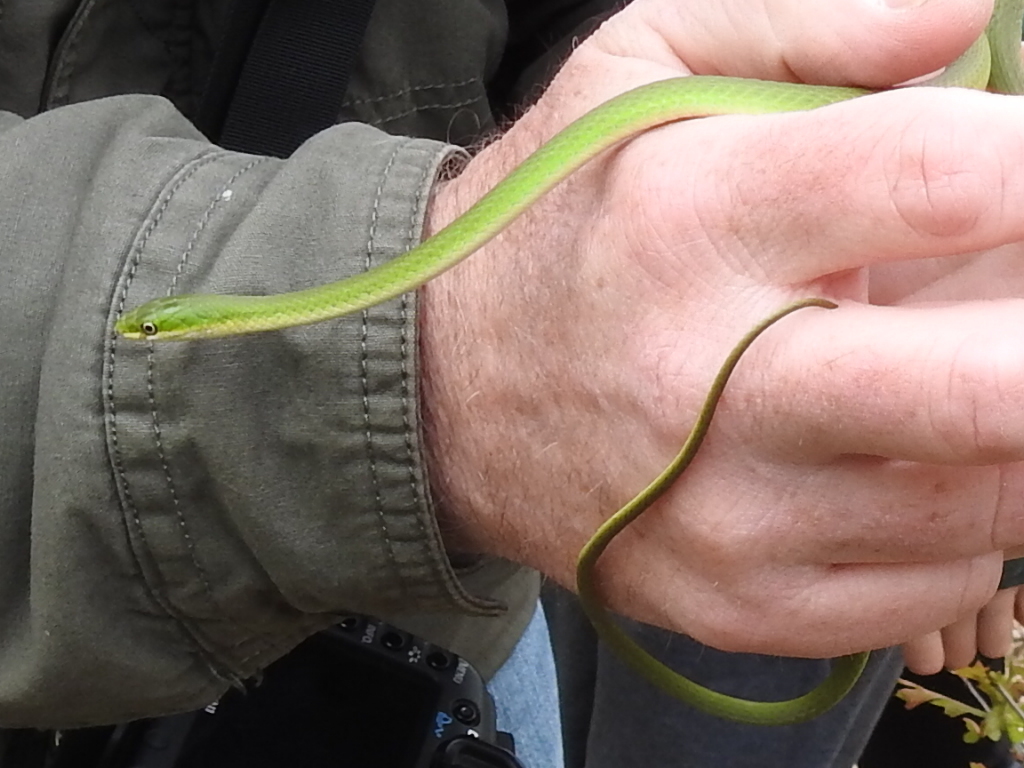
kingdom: Animalia
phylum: Chordata
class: Squamata
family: Colubridae
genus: Opheodrys
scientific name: Opheodrys aestivus
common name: Rough greensnake
